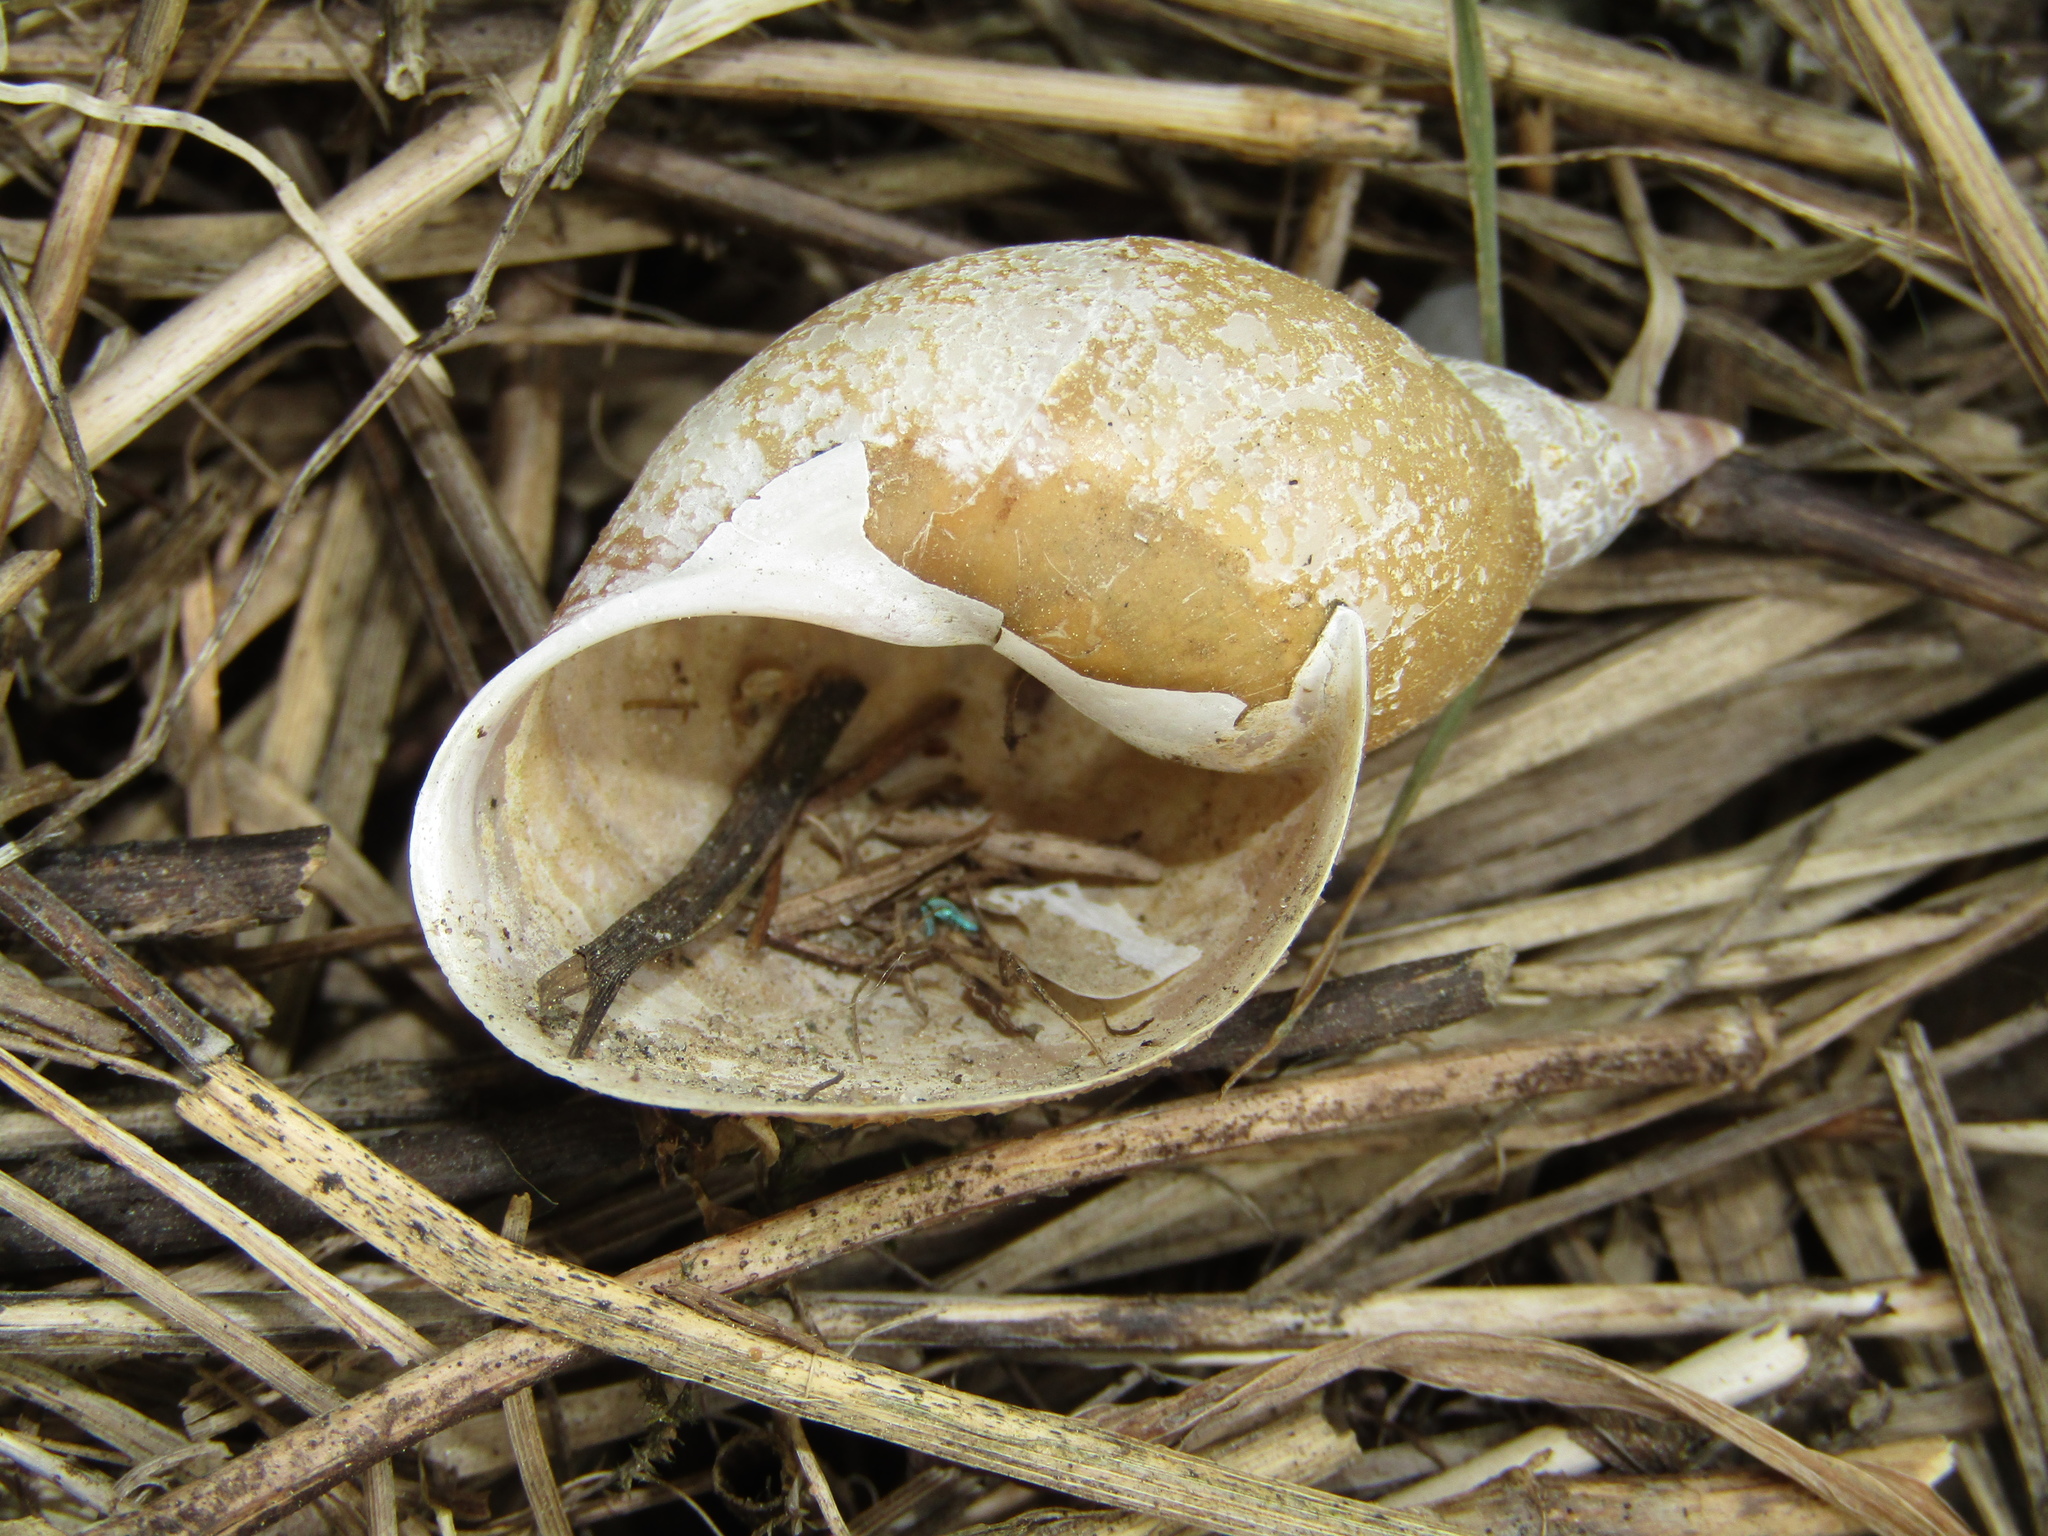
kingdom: Animalia
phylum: Mollusca
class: Gastropoda
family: Lymnaeidae
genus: Lymnaea
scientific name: Lymnaea stagnalis
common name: Great pond snail
